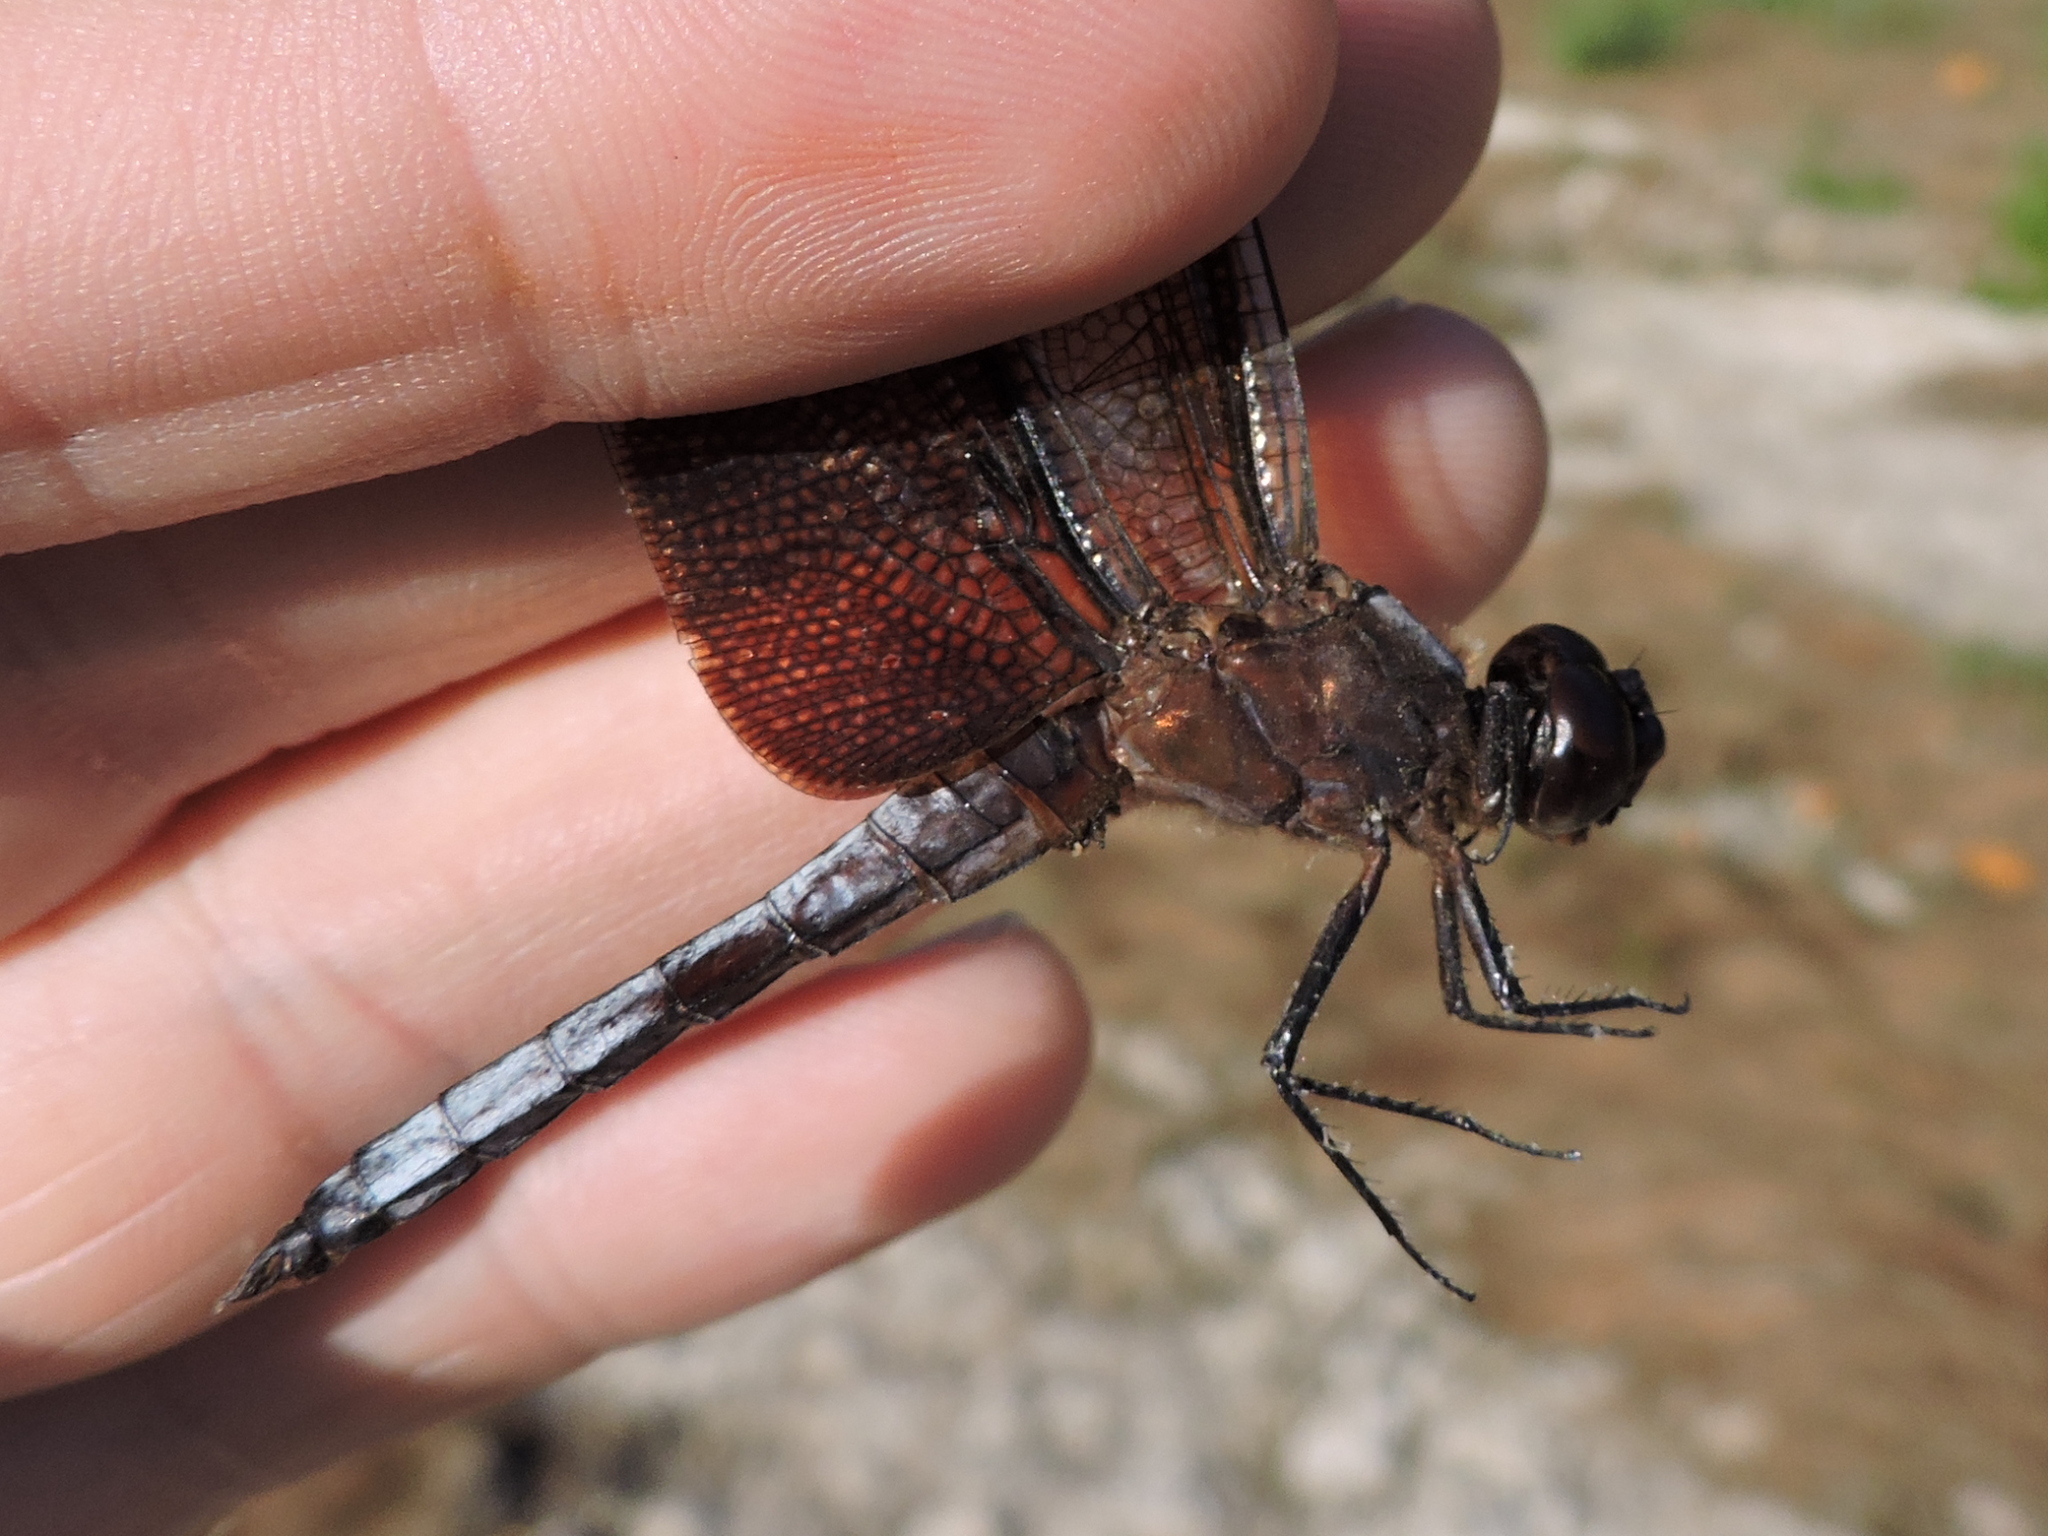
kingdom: Animalia
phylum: Arthropoda
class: Insecta
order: Odonata
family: Libellulidae
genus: Libellula
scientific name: Libellula luctuosa
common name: Widow skimmer
